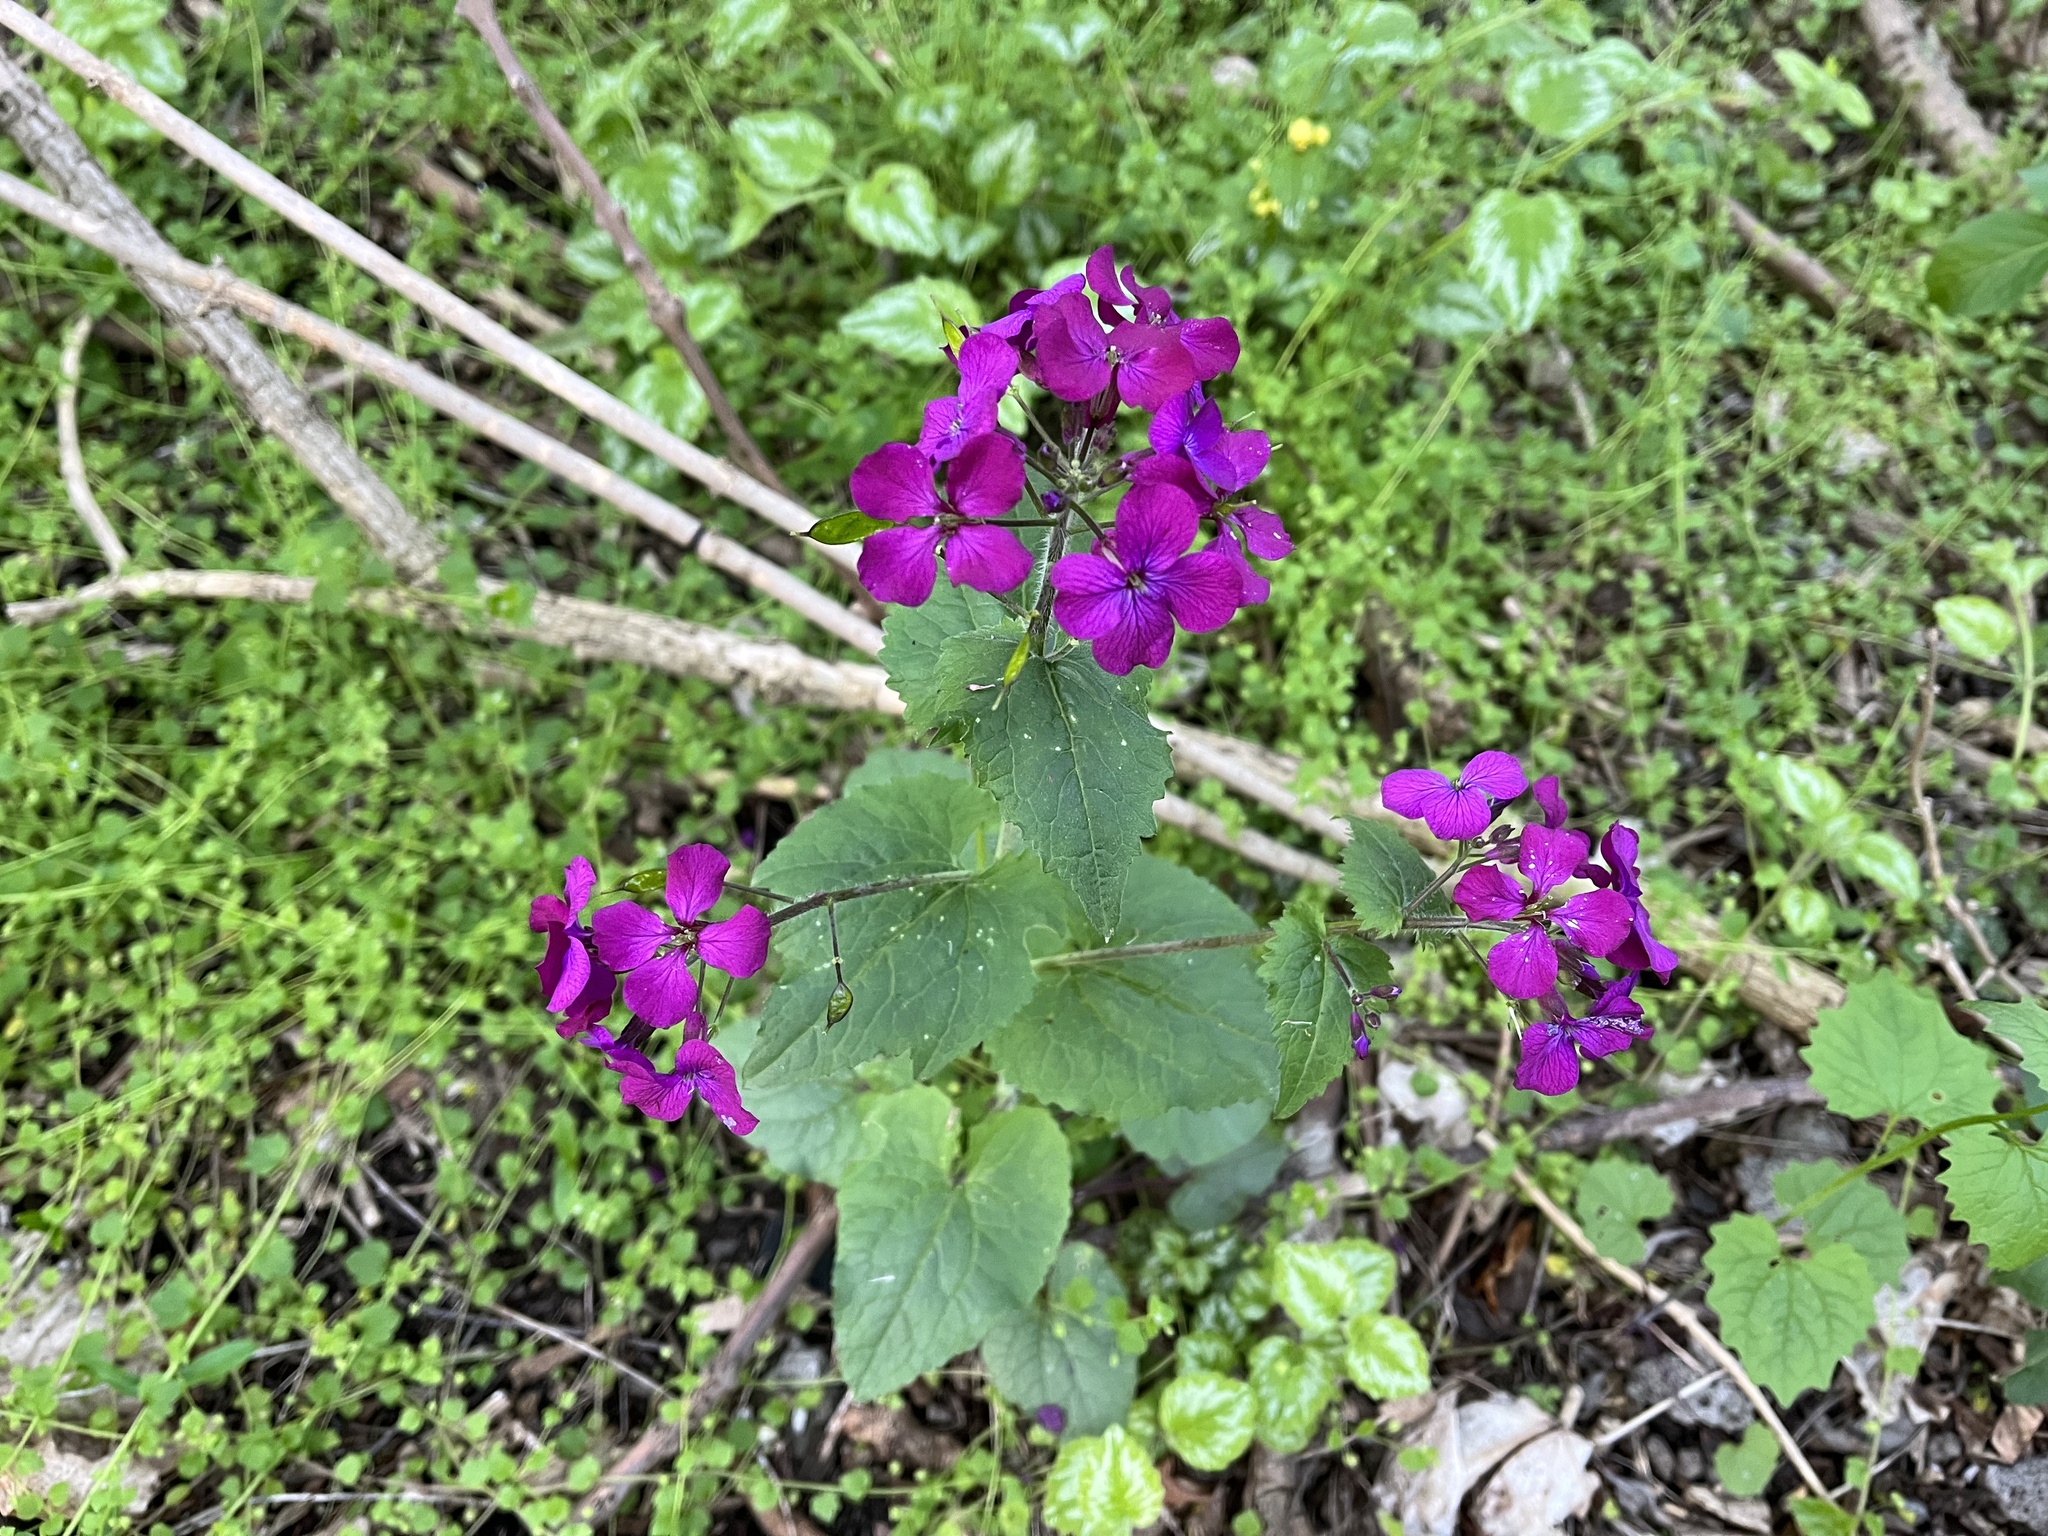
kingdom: Plantae
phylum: Tracheophyta
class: Magnoliopsida
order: Brassicales
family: Brassicaceae
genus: Lunaria
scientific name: Lunaria annua
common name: Honesty
